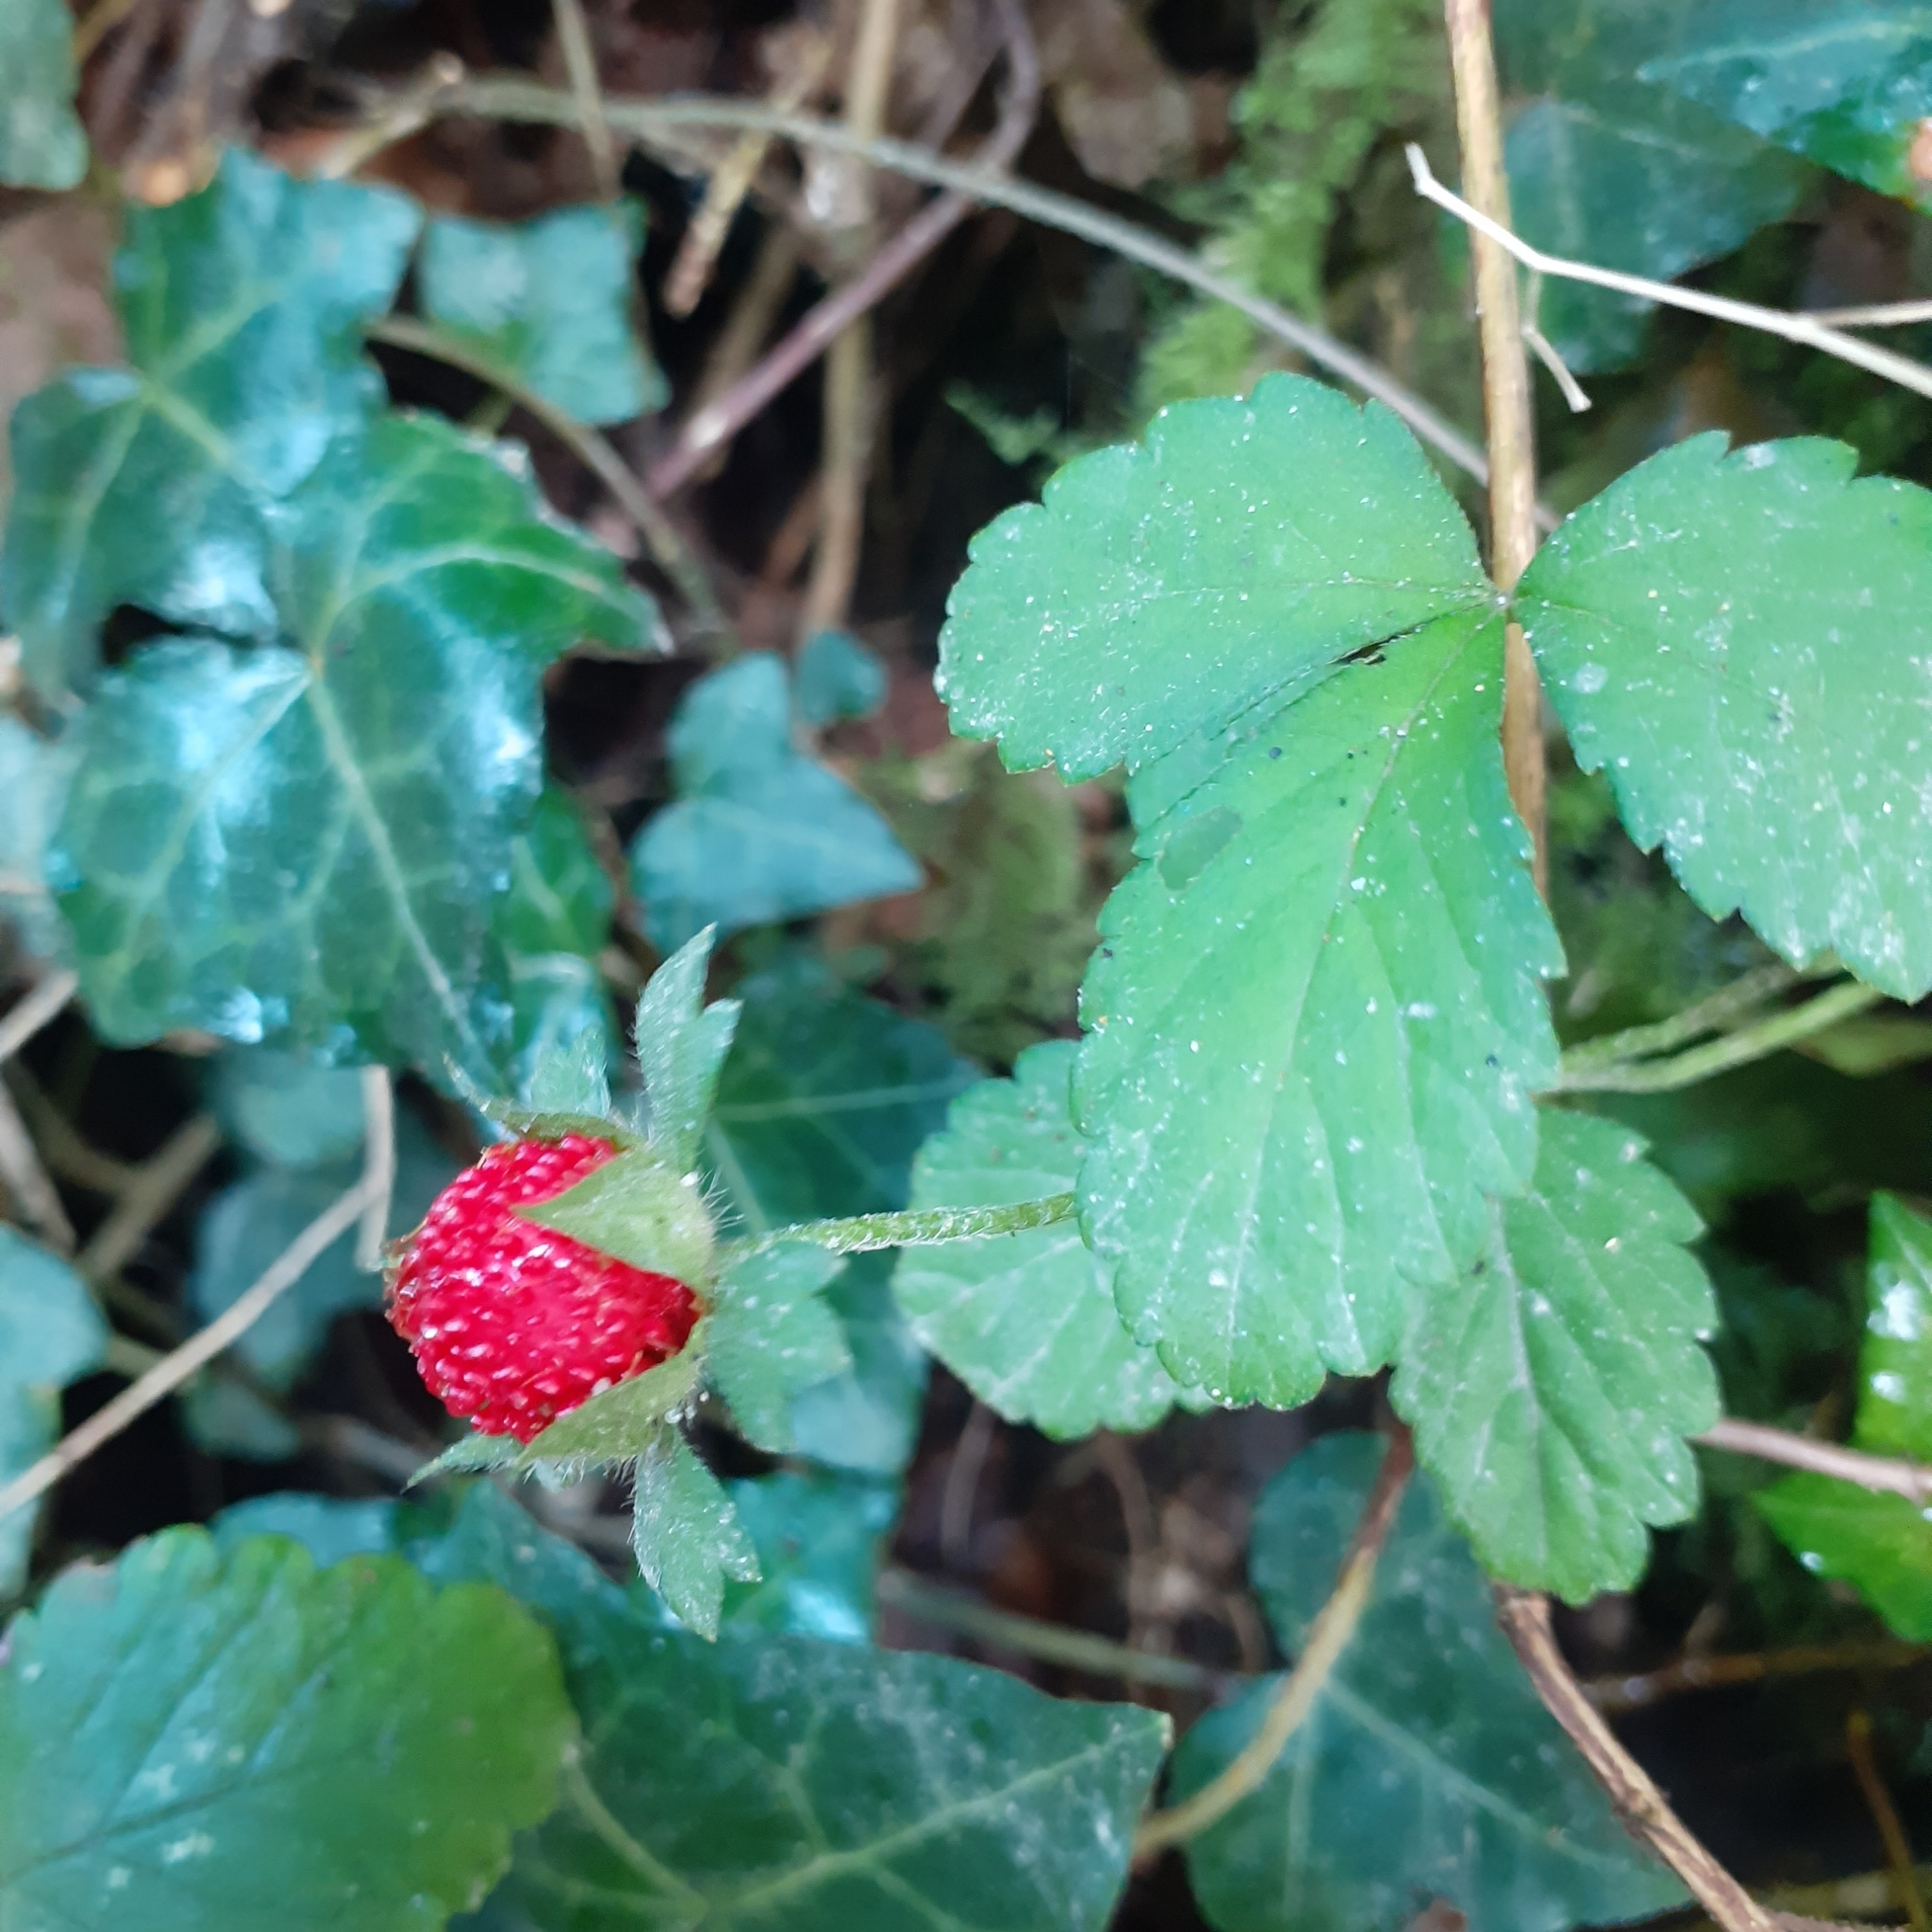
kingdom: Plantae
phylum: Tracheophyta
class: Magnoliopsida
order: Rosales
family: Rosaceae
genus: Potentilla
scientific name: Potentilla indica
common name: Yellow-flowered strawberry
